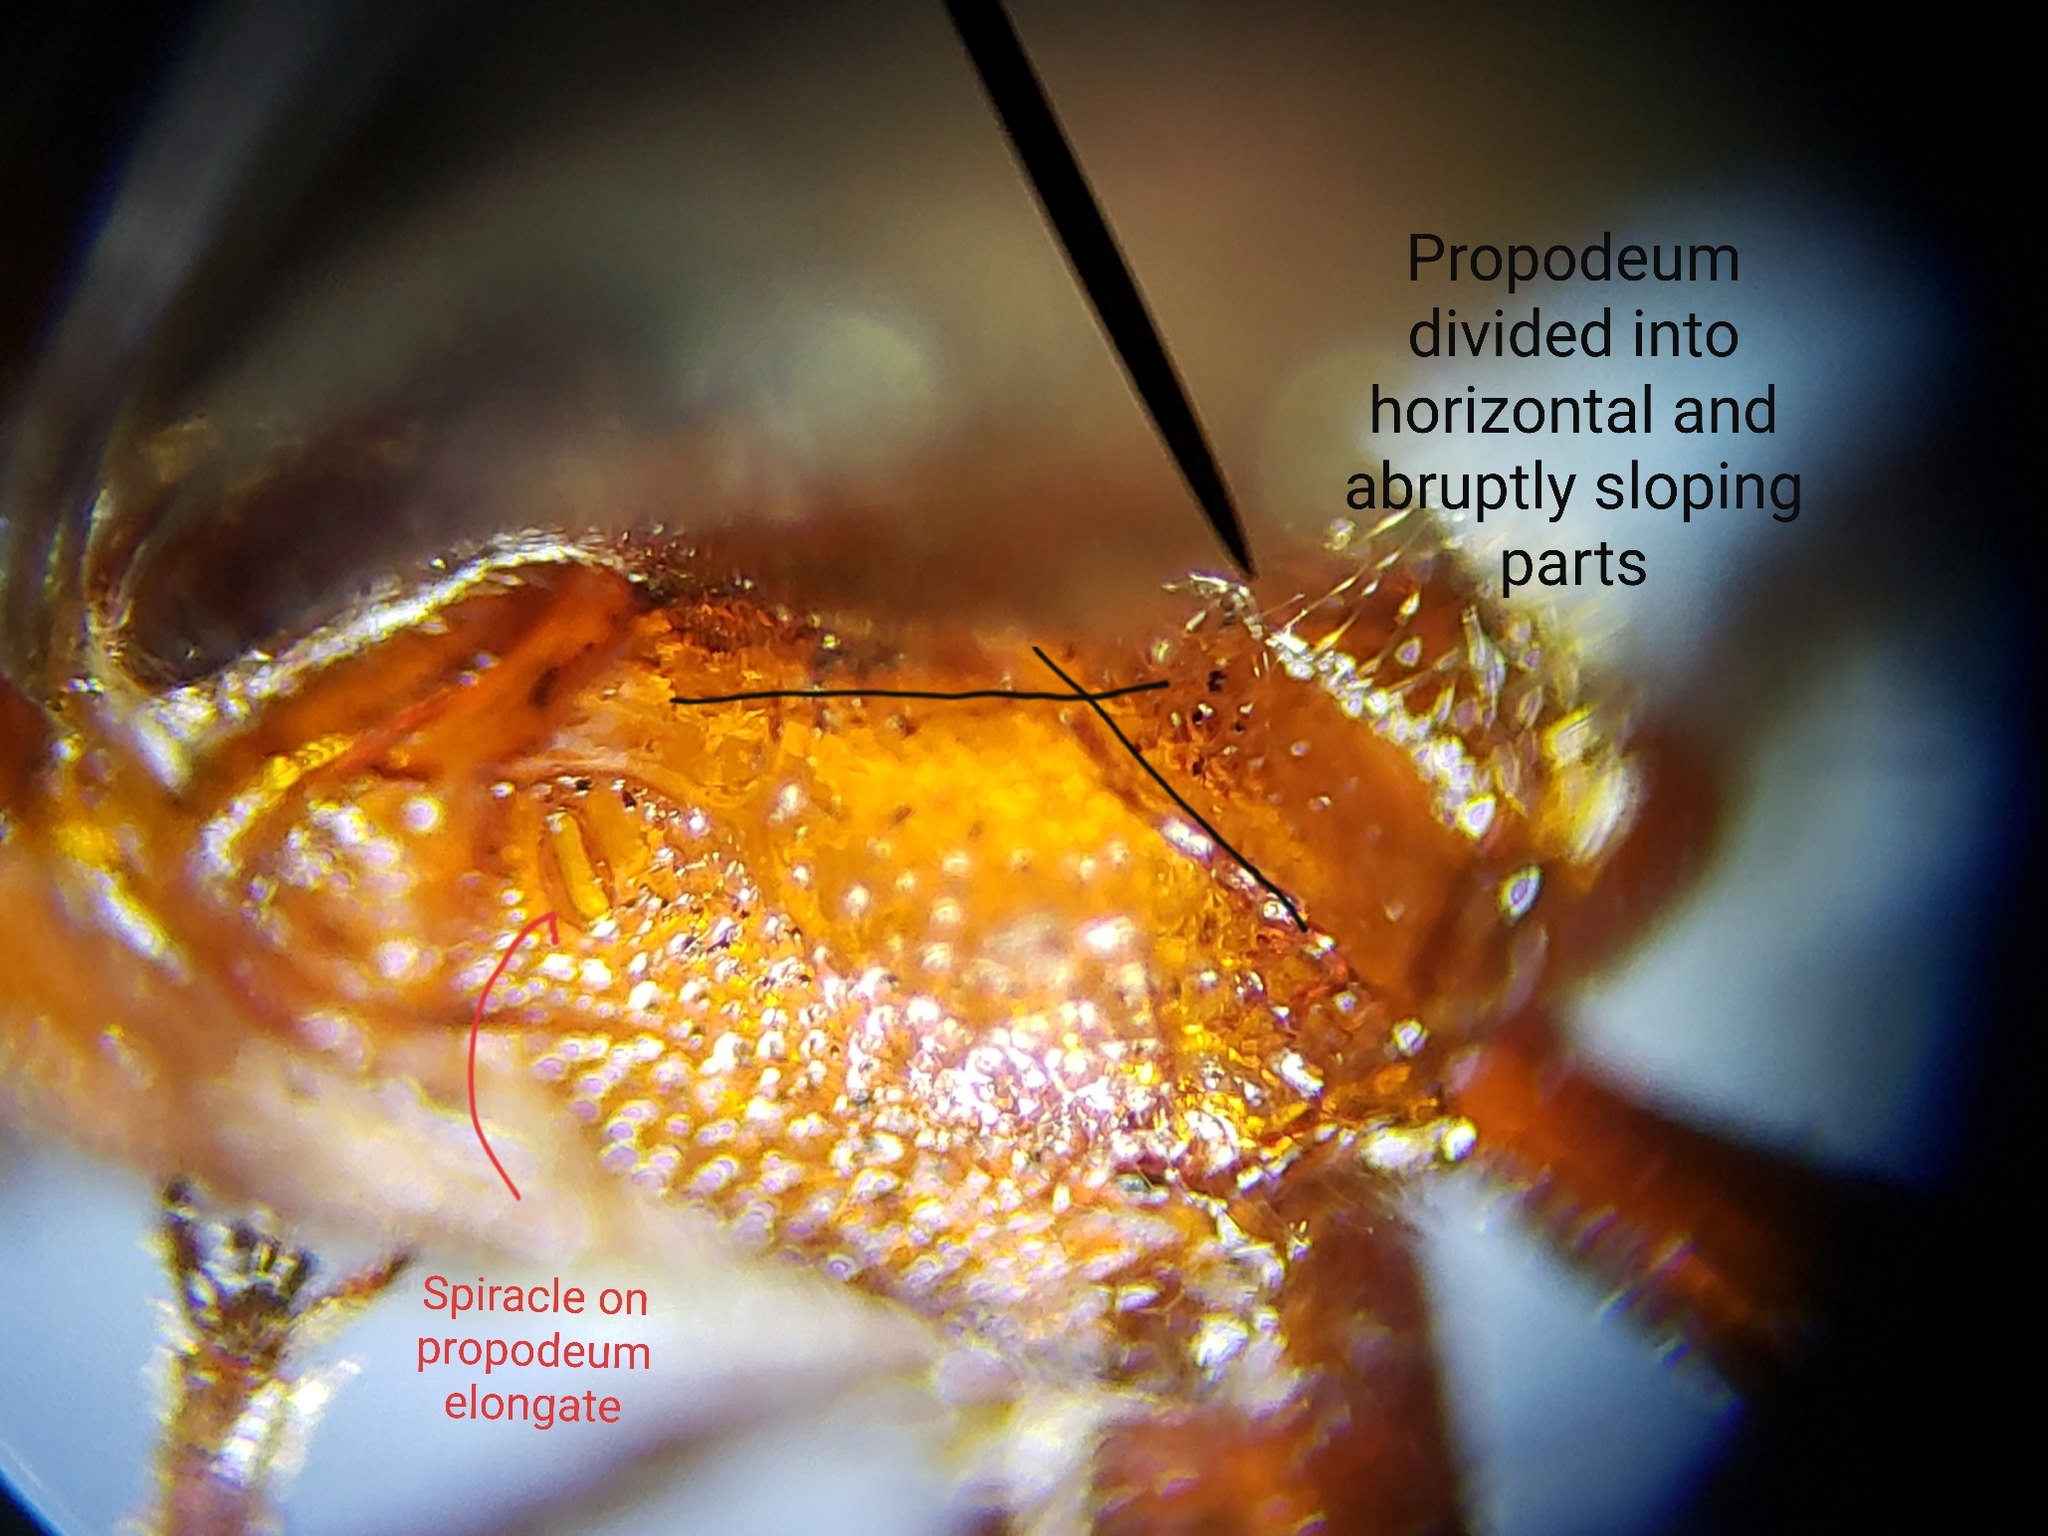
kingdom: Animalia
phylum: Arthropoda
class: Insecta
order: Hymenoptera
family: Ichneumonidae
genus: Trogomorpha
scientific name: Trogomorpha trogiformis
